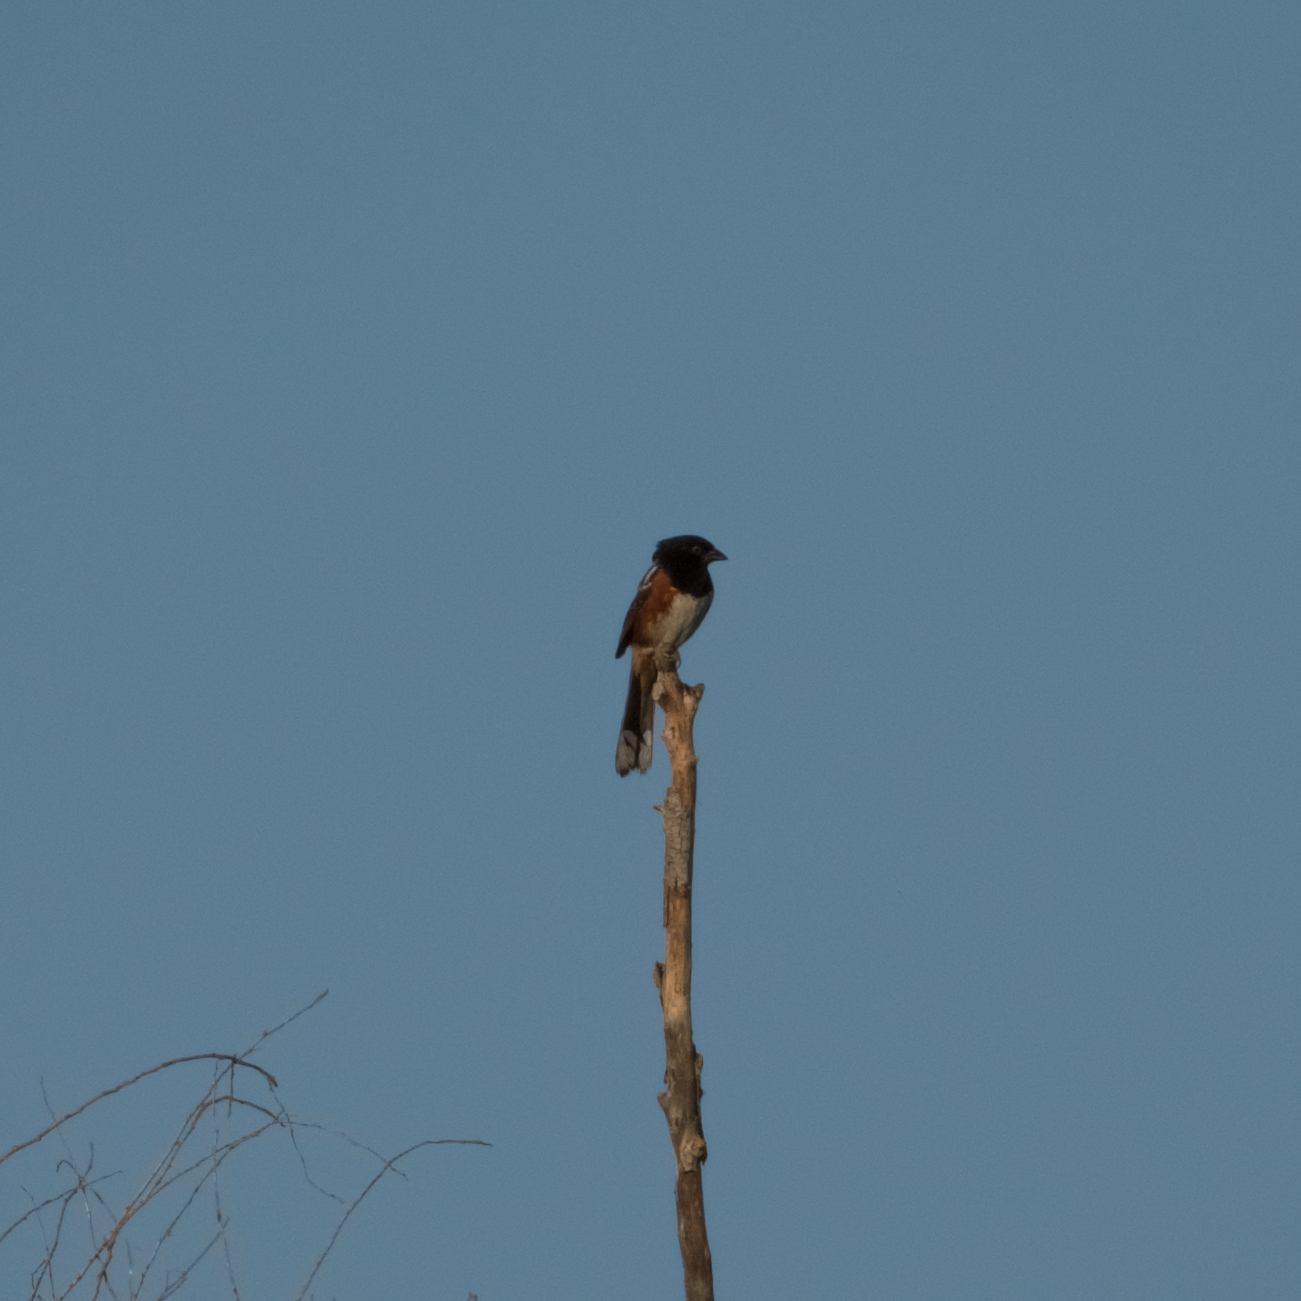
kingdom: Animalia
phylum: Chordata
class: Aves
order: Passeriformes
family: Passerellidae
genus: Pipilo
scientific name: Pipilo maculatus
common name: Spotted towhee
